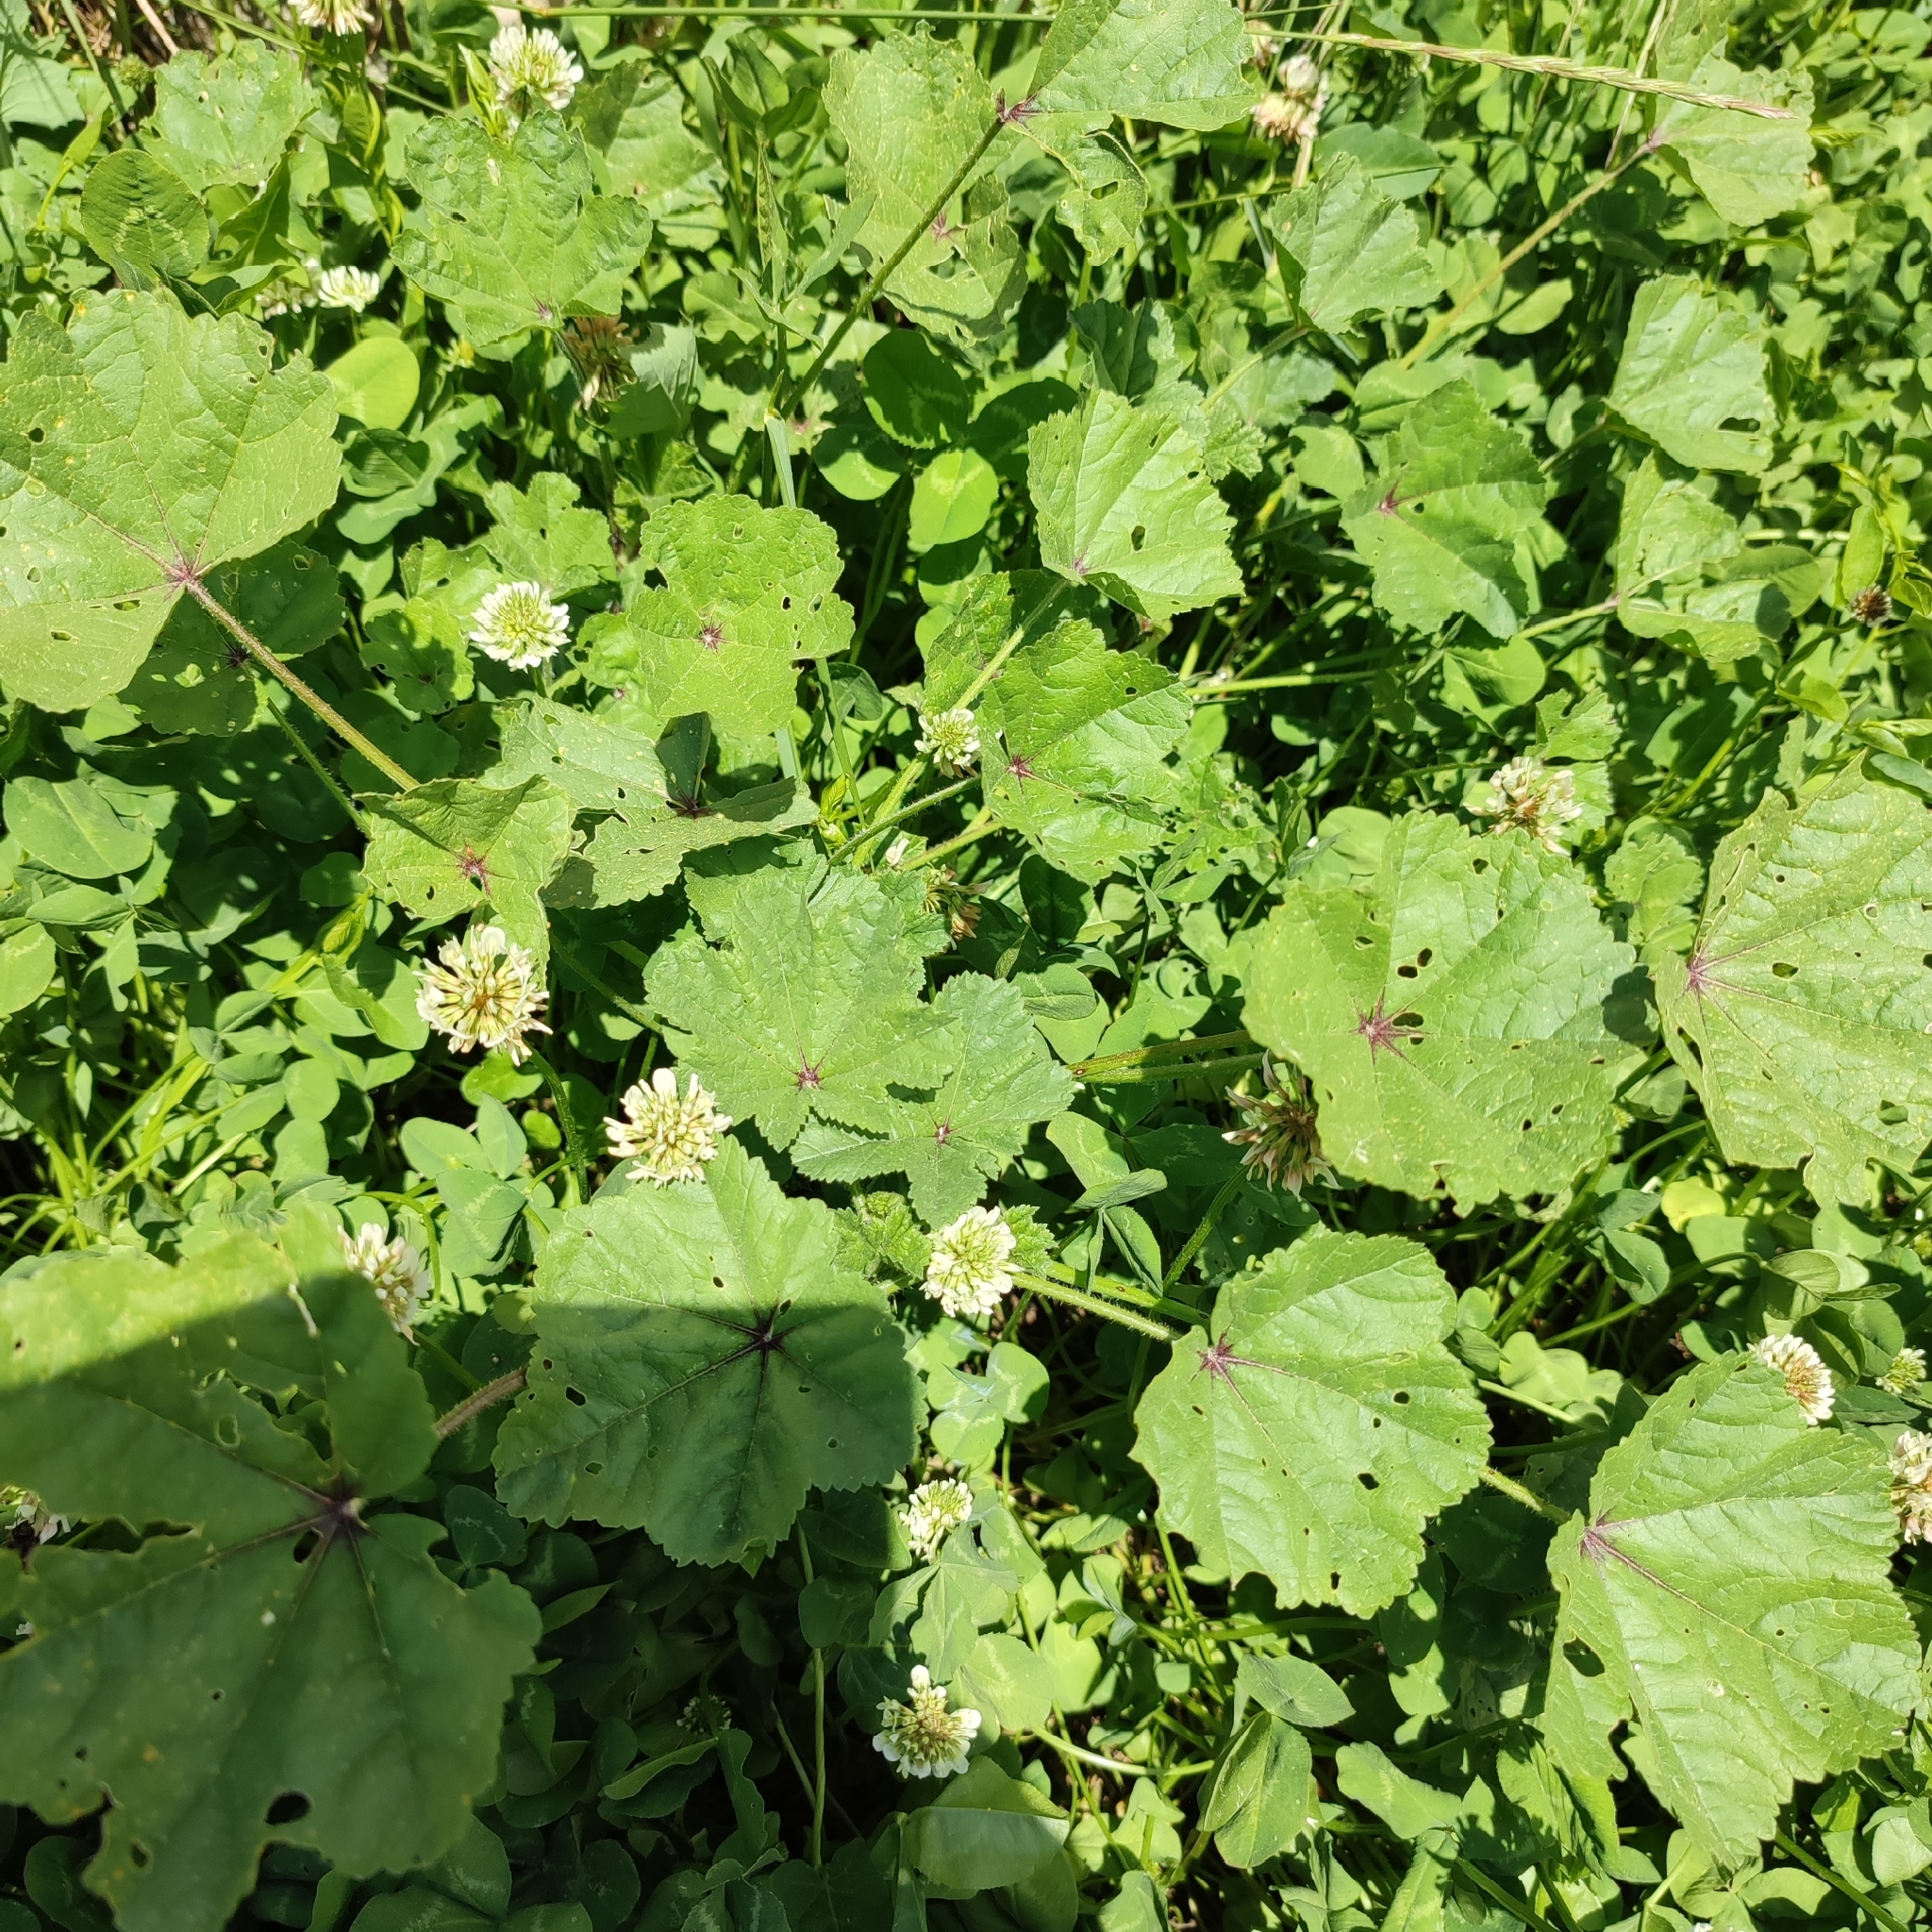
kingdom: Plantae
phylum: Tracheophyta
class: Magnoliopsida
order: Malvales
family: Malvaceae
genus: Malva
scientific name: Malva sylvestris
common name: Common mallow
